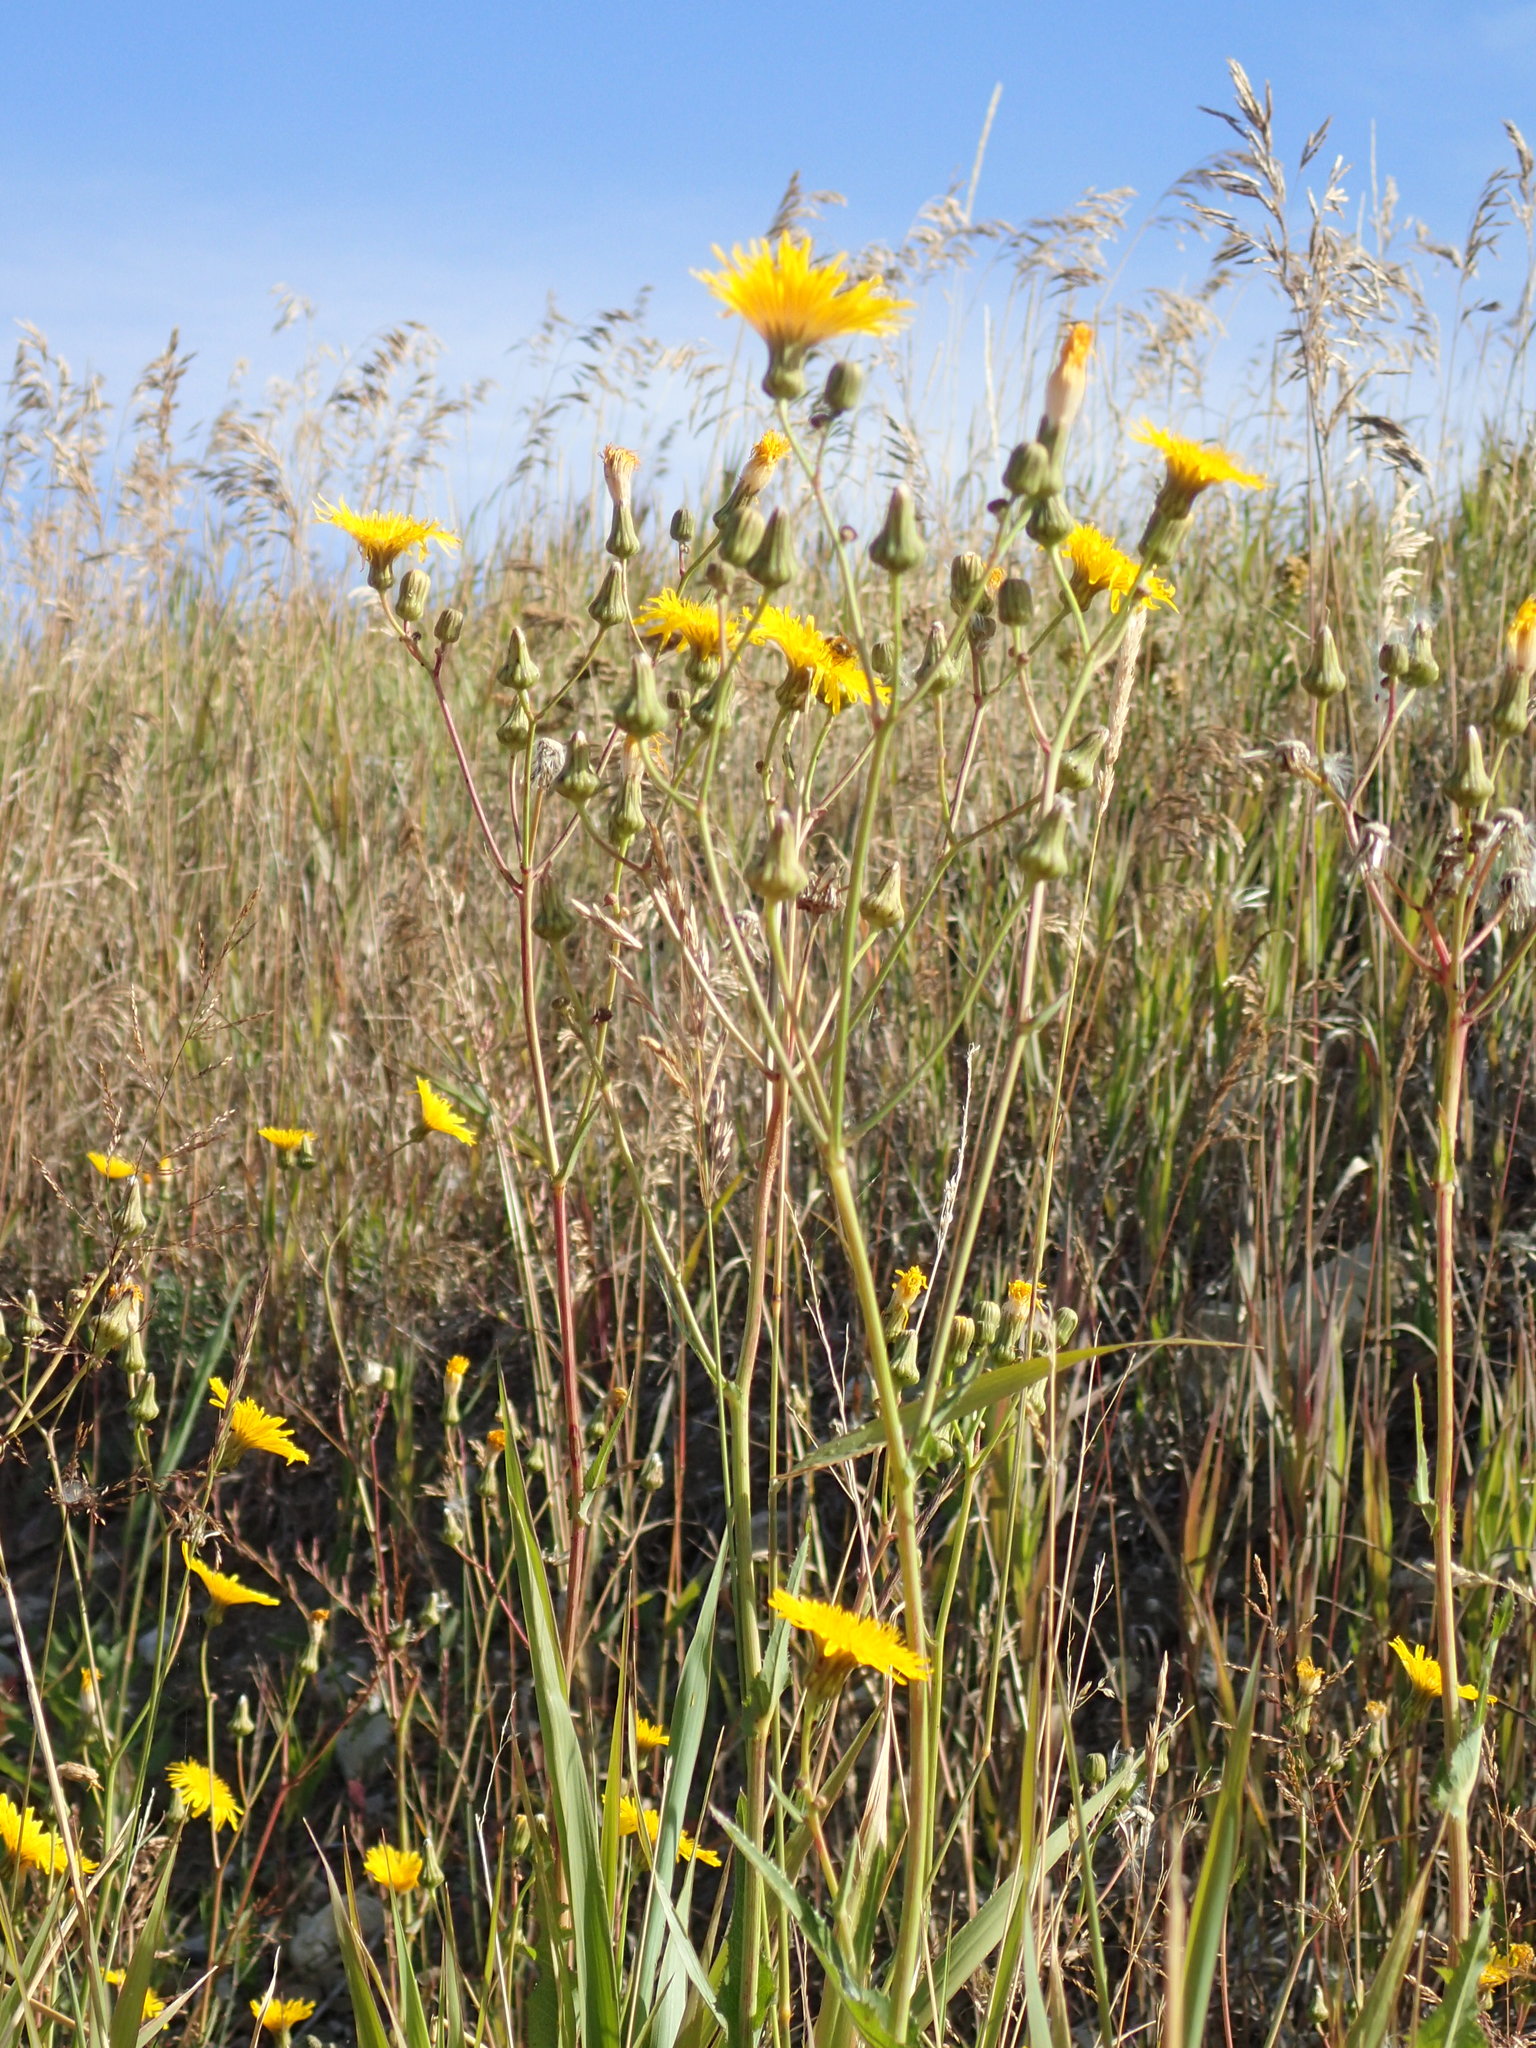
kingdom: Plantae
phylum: Tracheophyta
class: Magnoliopsida
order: Asterales
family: Asteraceae
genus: Sonchus
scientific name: Sonchus arvensis
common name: Perennial sow-thistle
